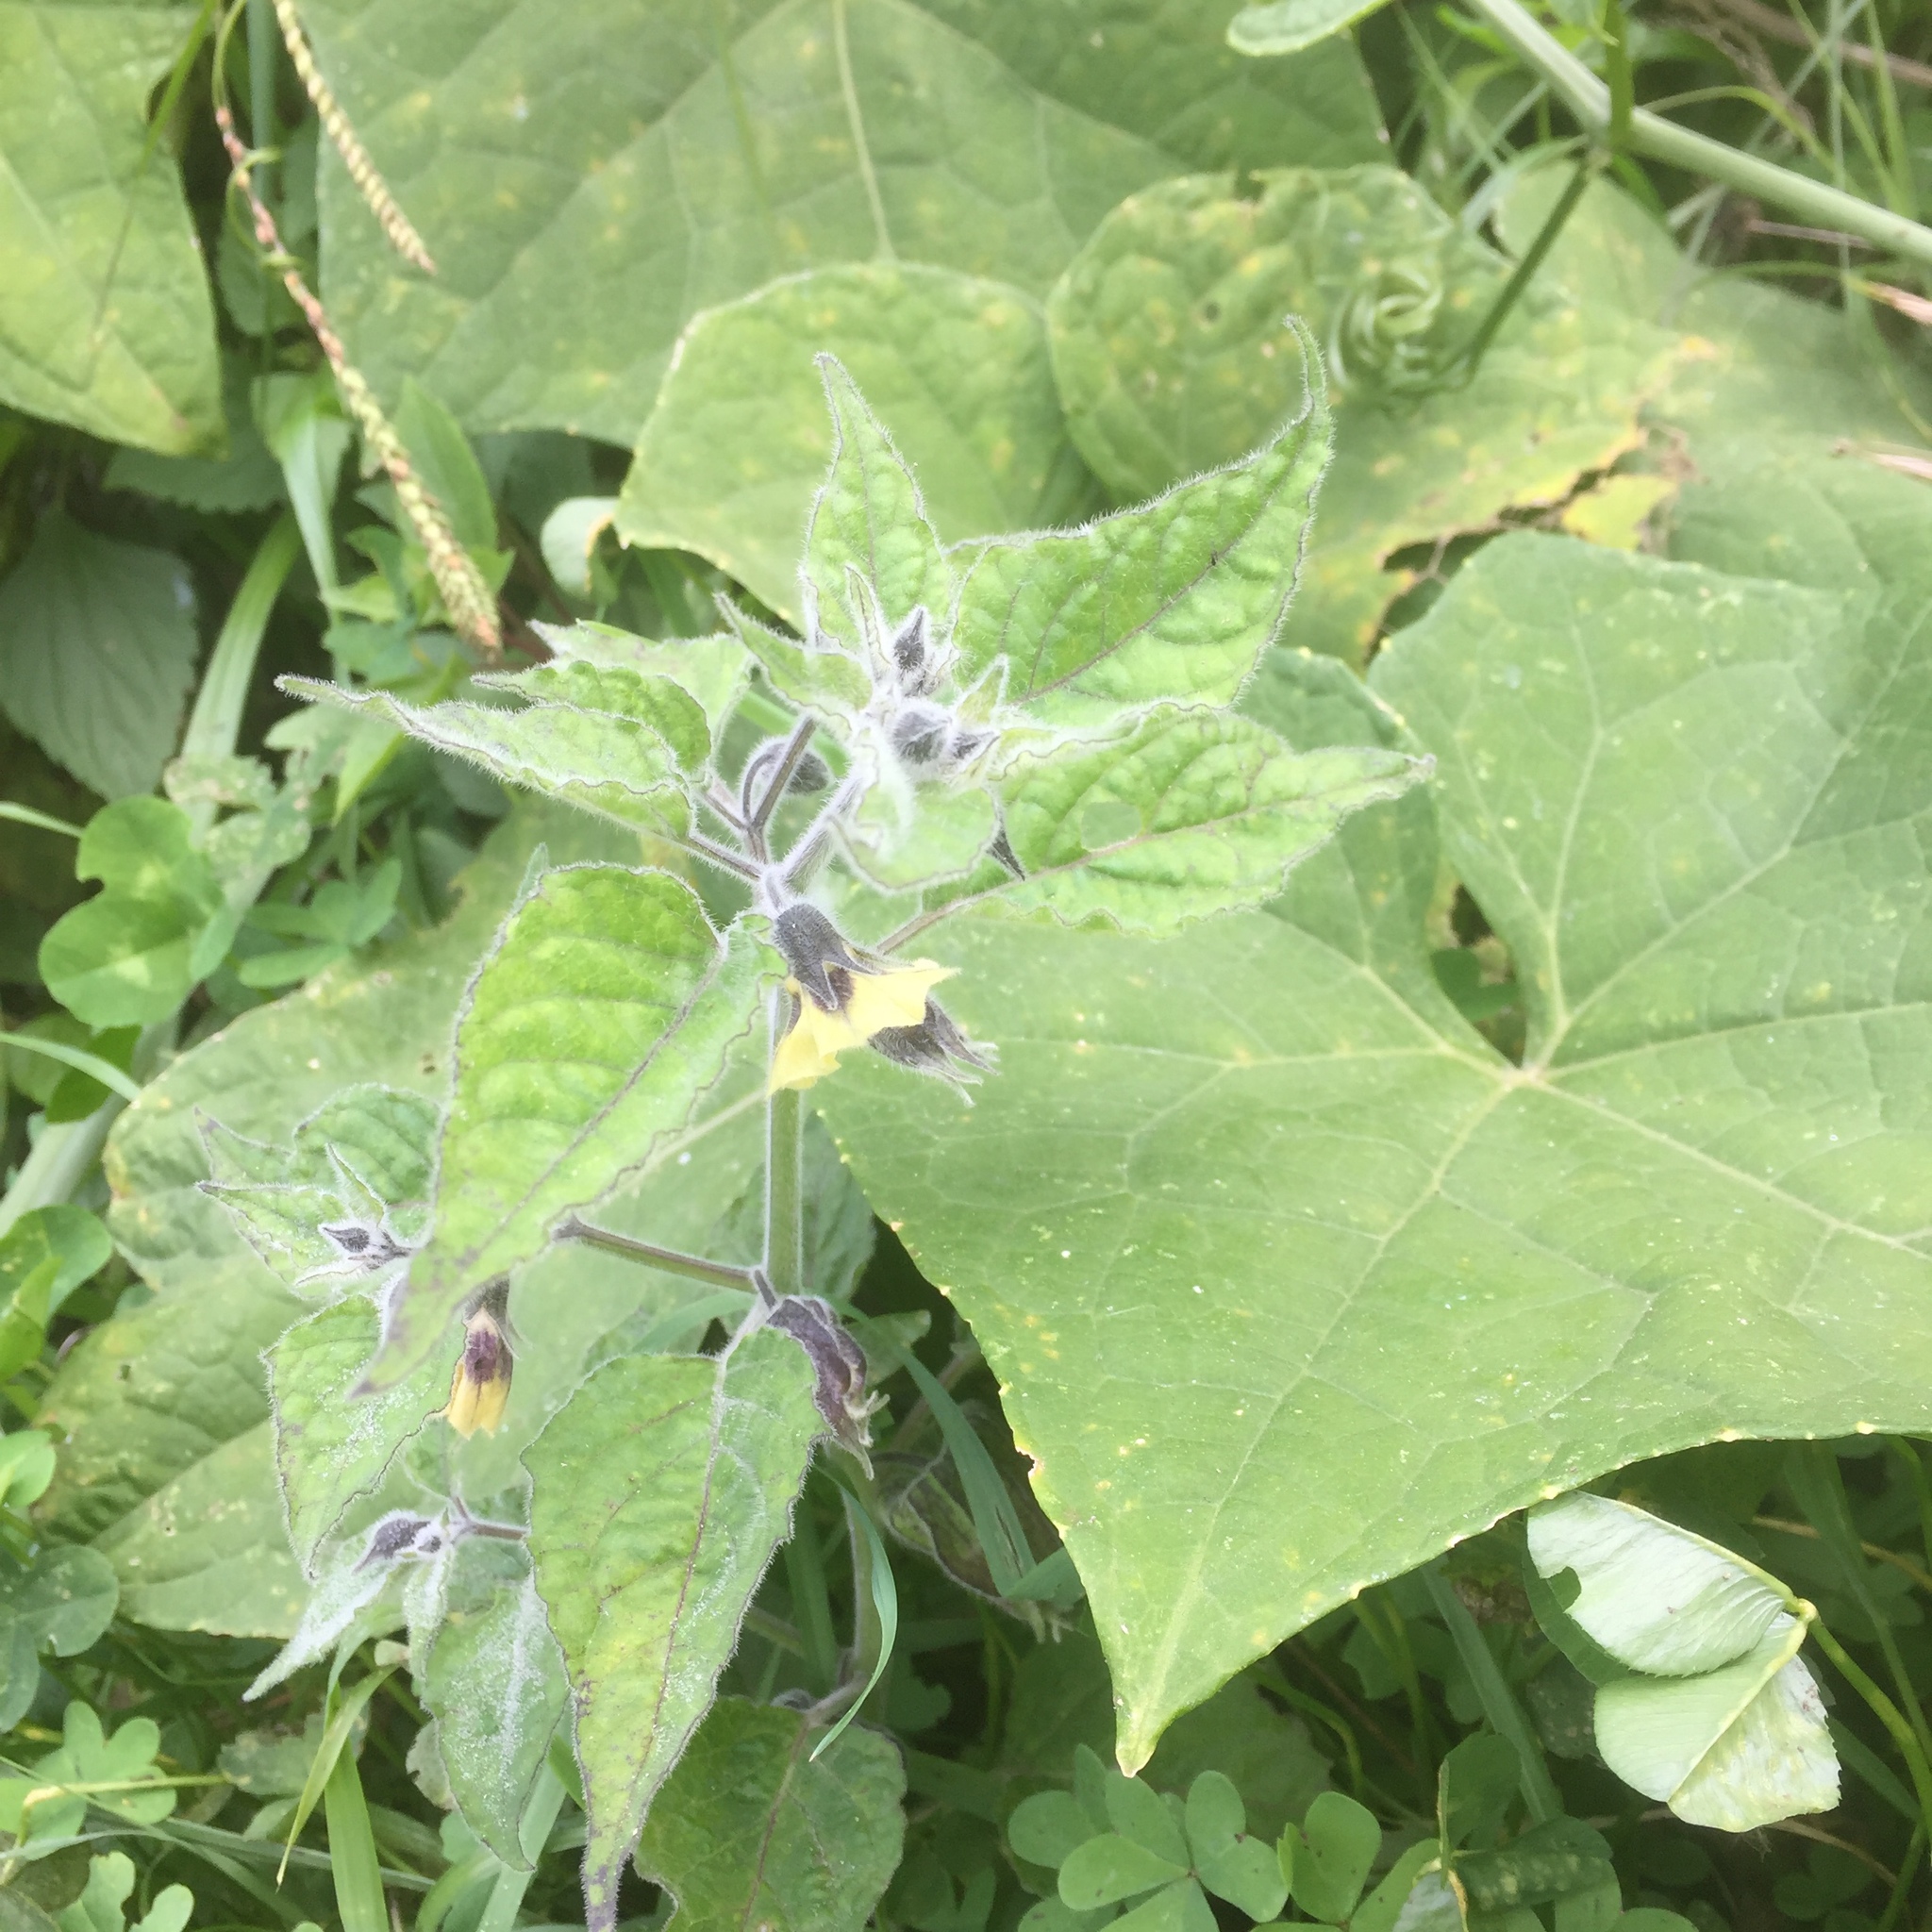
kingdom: Plantae
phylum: Tracheophyta
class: Magnoliopsida
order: Solanales
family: Solanaceae
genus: Physalis
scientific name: Physalis peruviana
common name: Cape-gooseberry
